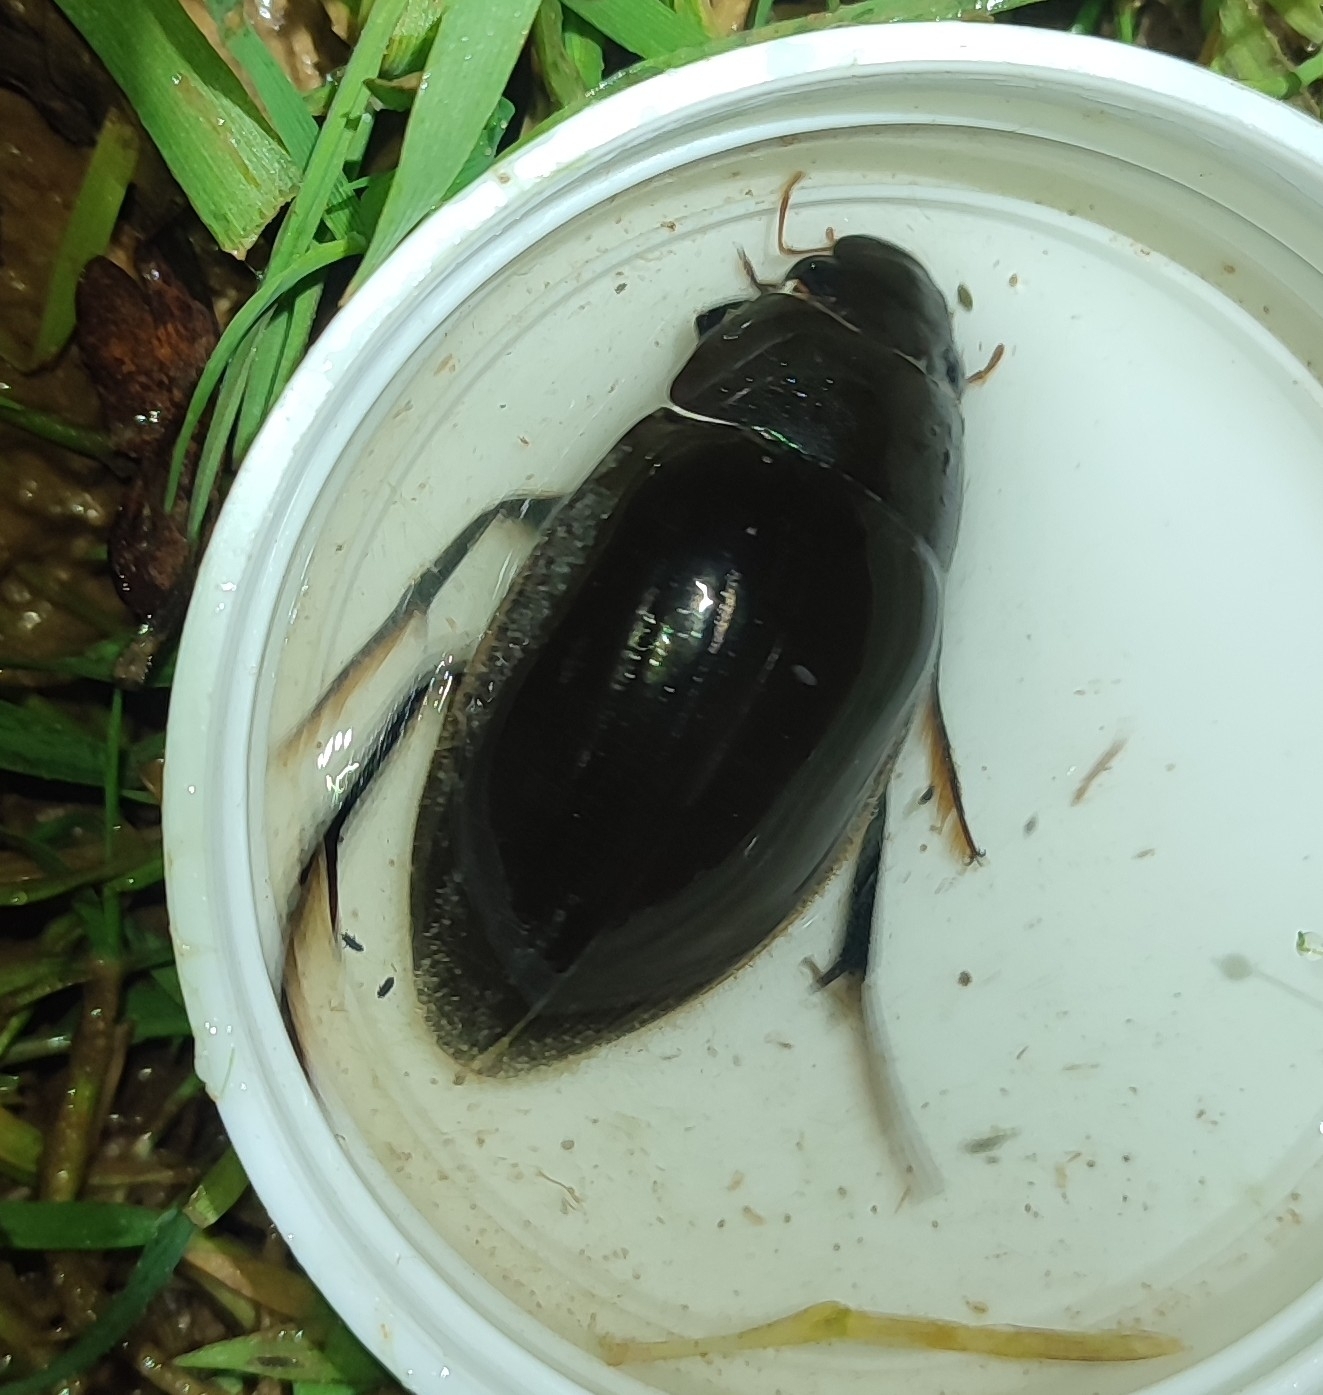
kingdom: Animalia
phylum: Arthropoda
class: Insecta
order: Coleoptera
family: Hydrophilidae
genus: Hydrophilus
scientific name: Hydrophilus piceus
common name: Great silver water beetle
